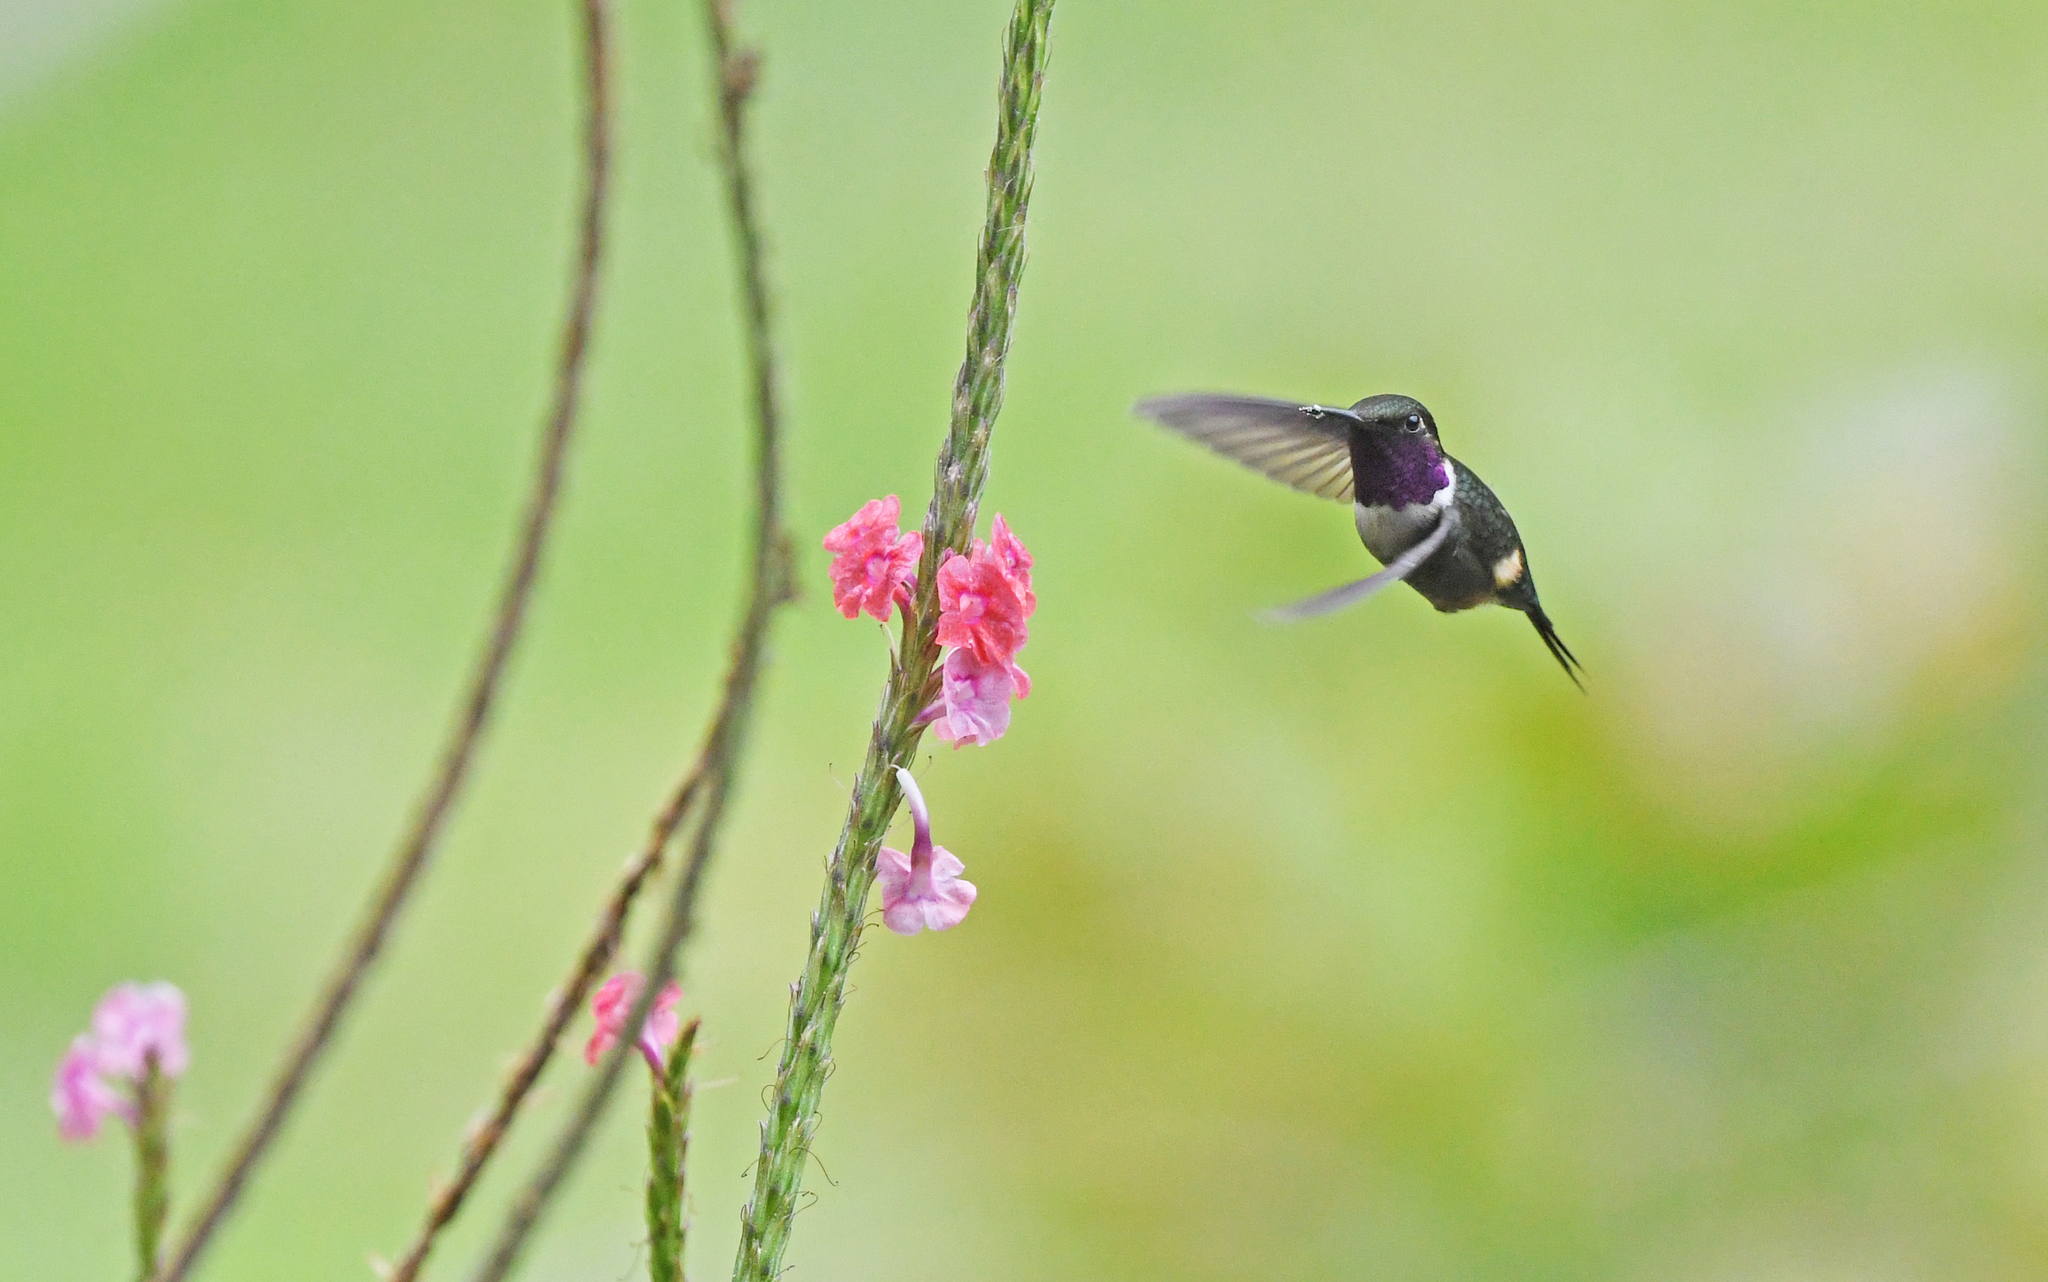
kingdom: Animalia
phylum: Chordata
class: Aves
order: Apodiformes
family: Trochilidae
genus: Calliphlox
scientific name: Calliphlox mitchellii
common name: Purple-throated woodstar
